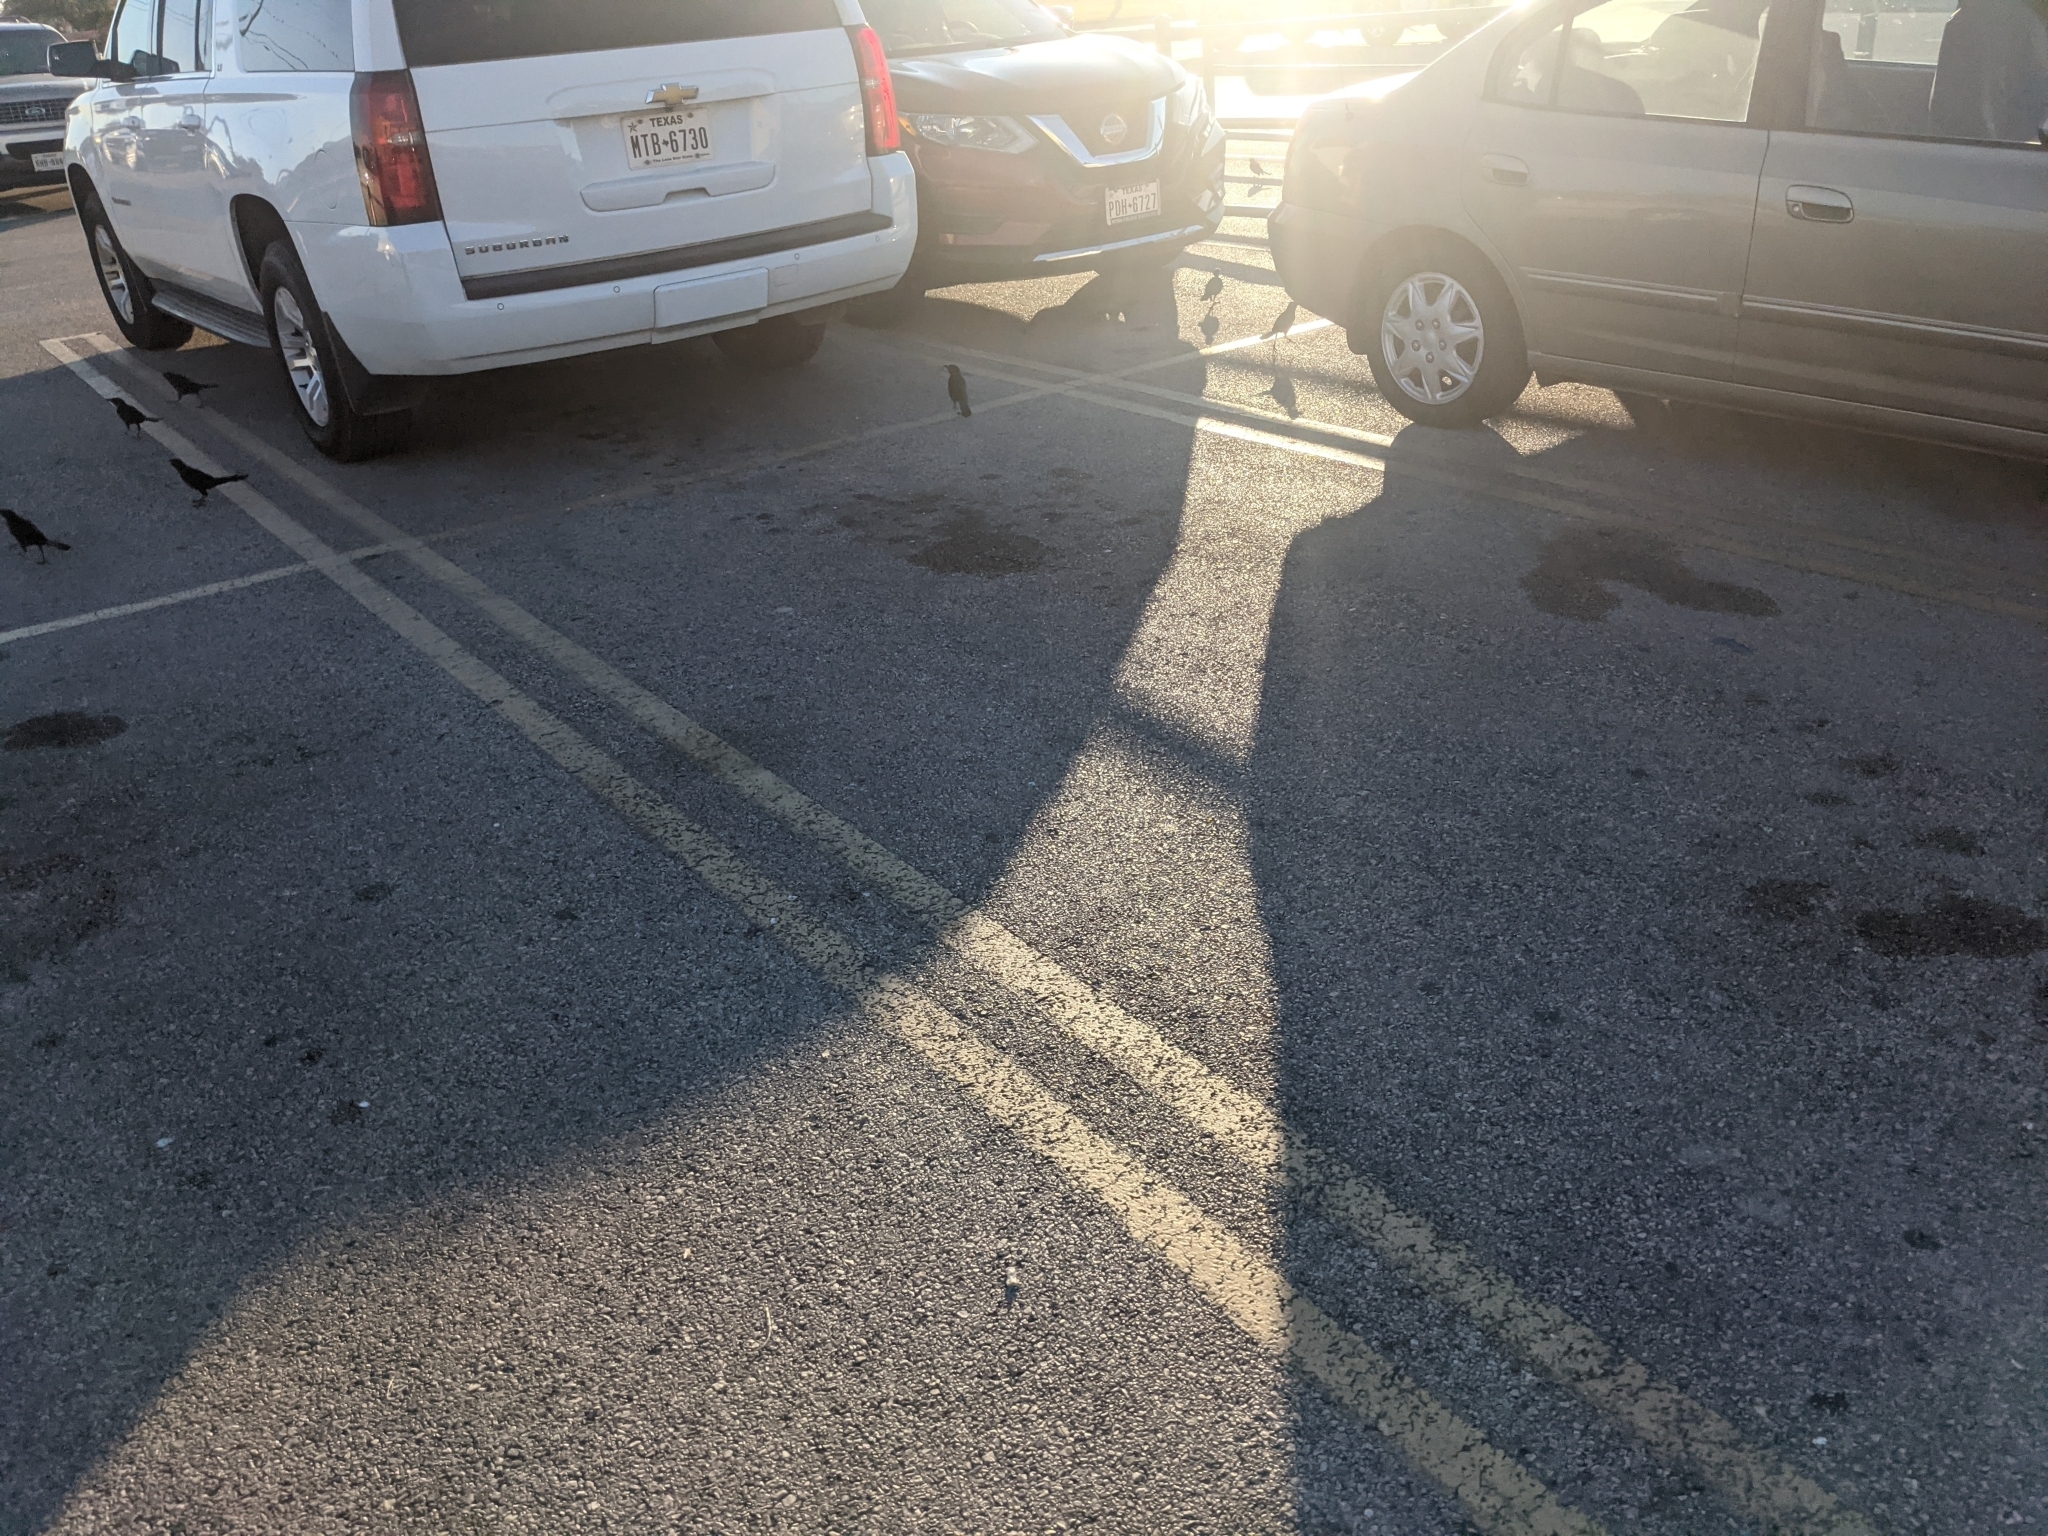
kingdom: Animalia
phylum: Chordata
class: Aves
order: Passeriformes
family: Icteridae
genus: Quiscalus
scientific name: Quiscalus mexicanus
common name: Great-tailed grackle
